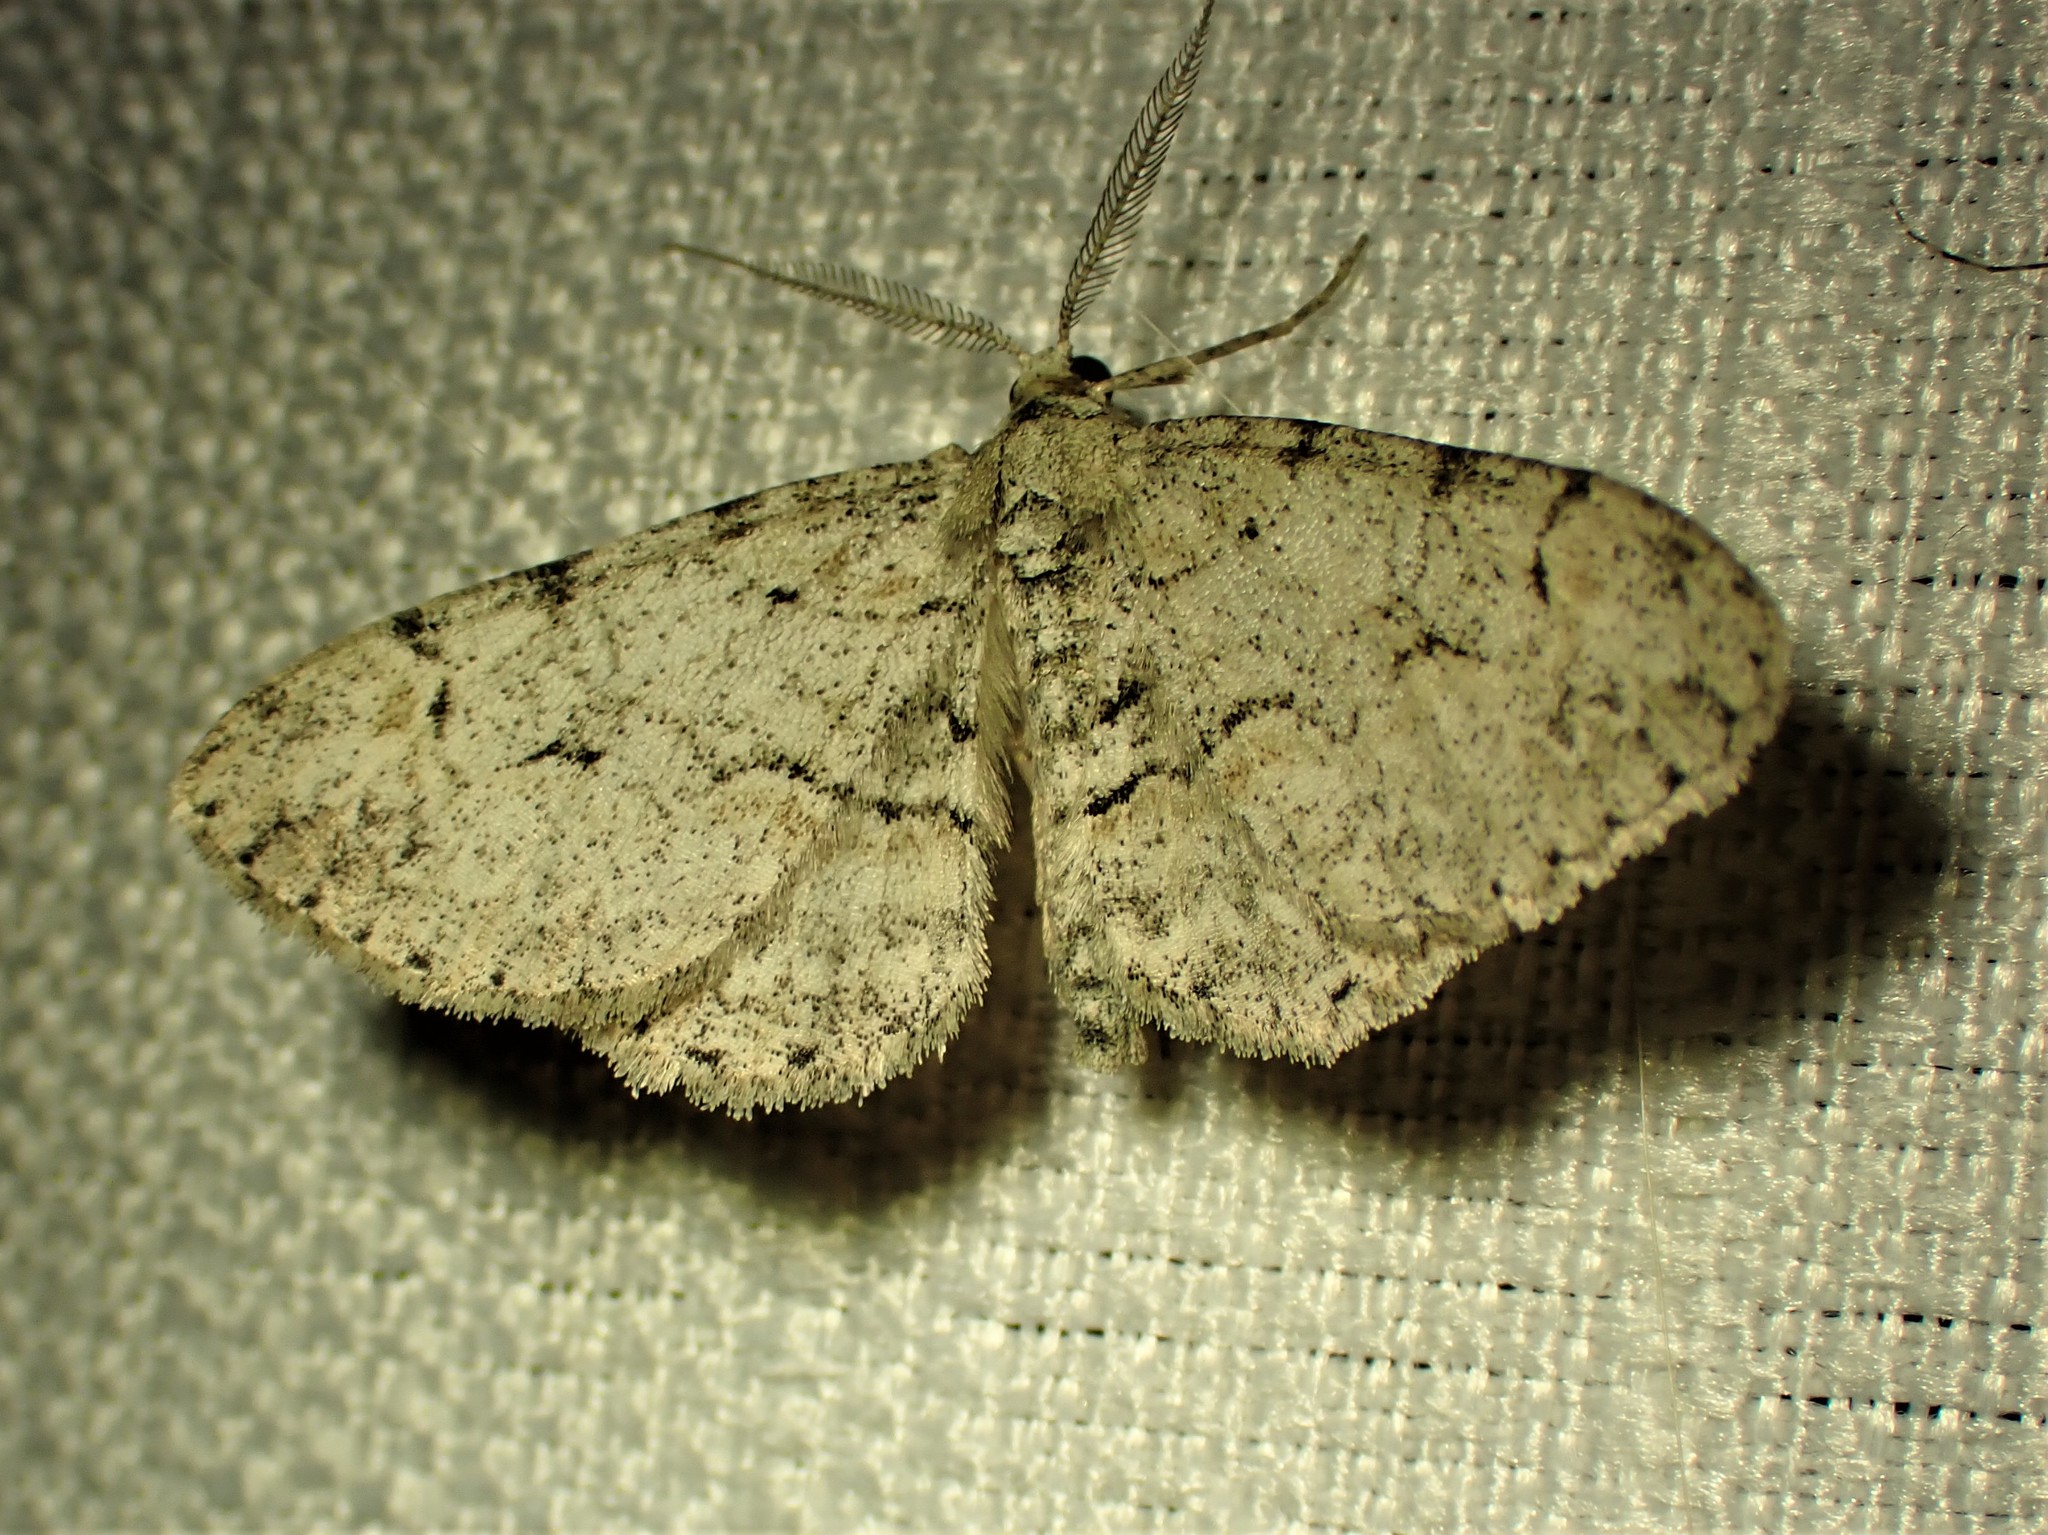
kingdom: Animalia
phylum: Arthropoda
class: Insecta
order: Lepidoptera
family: Geometridae
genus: Iridopsis
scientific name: Iridopsis ephyraria
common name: Pale-winged gray
